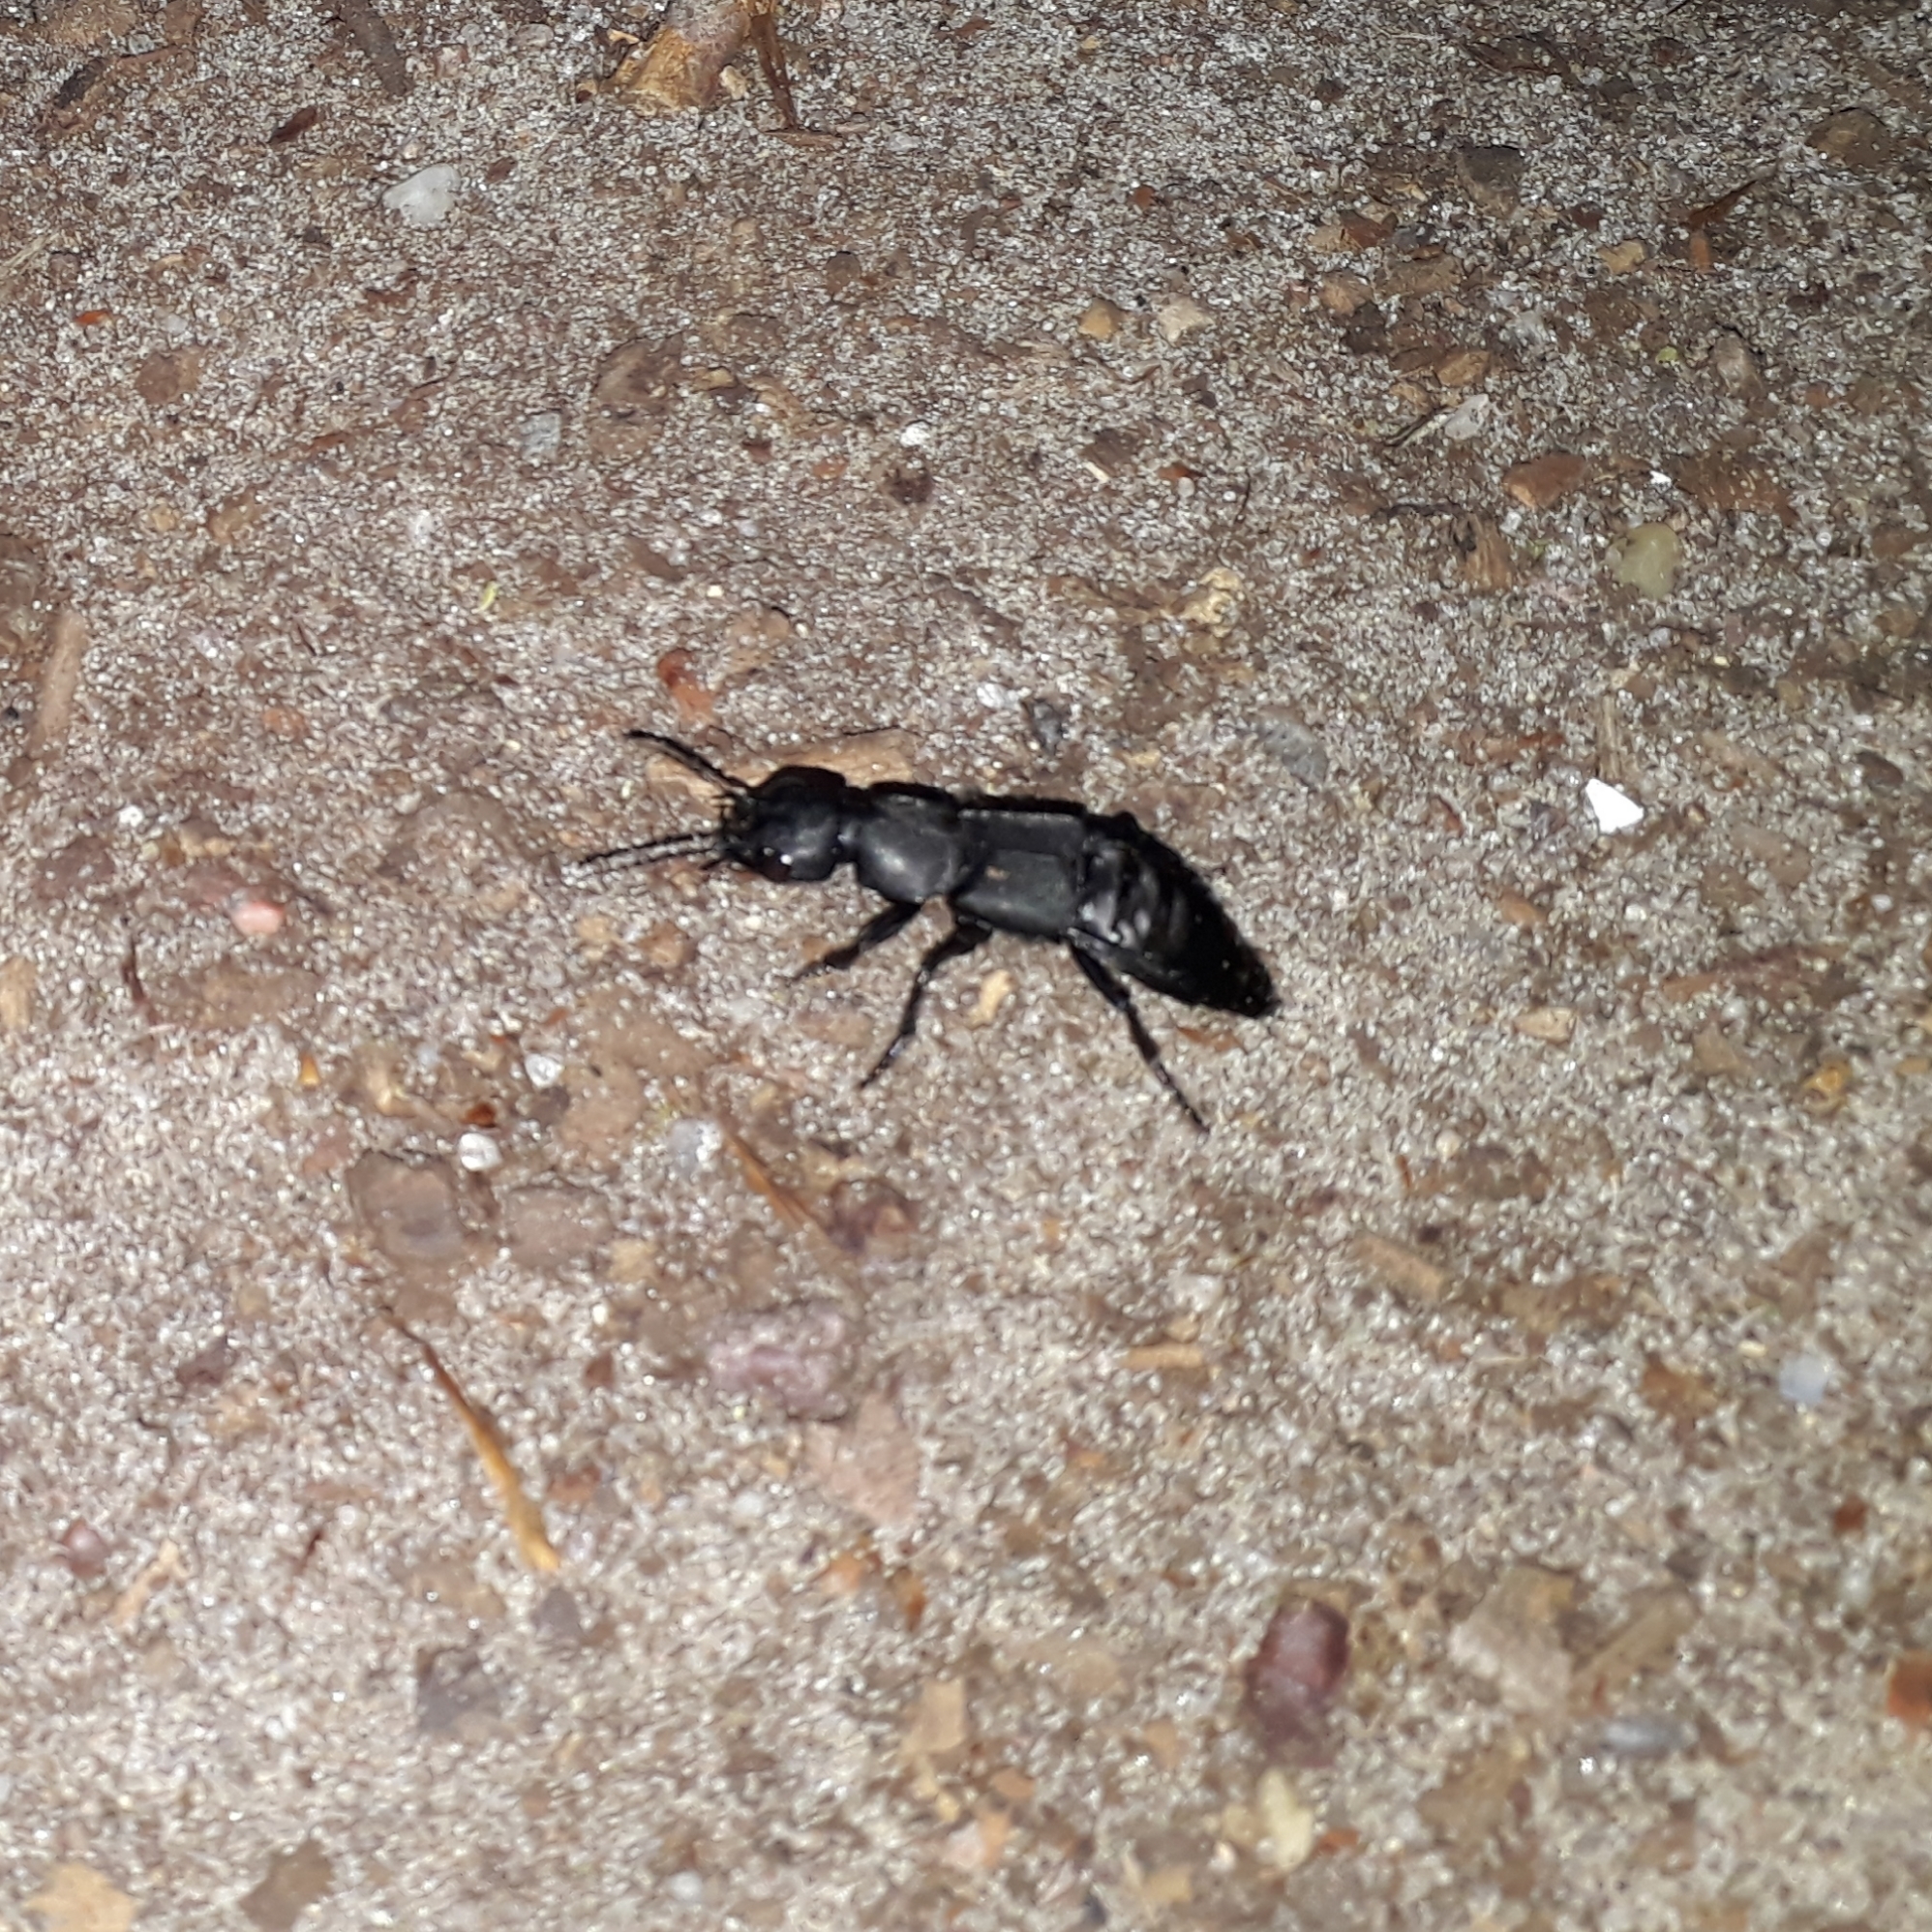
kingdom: Animalia
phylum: Arthropoda
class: Insecta
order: Coleoptera
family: Staphylinidae
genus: Ocypus
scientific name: Ocypus olens
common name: Devil's coach-horse
